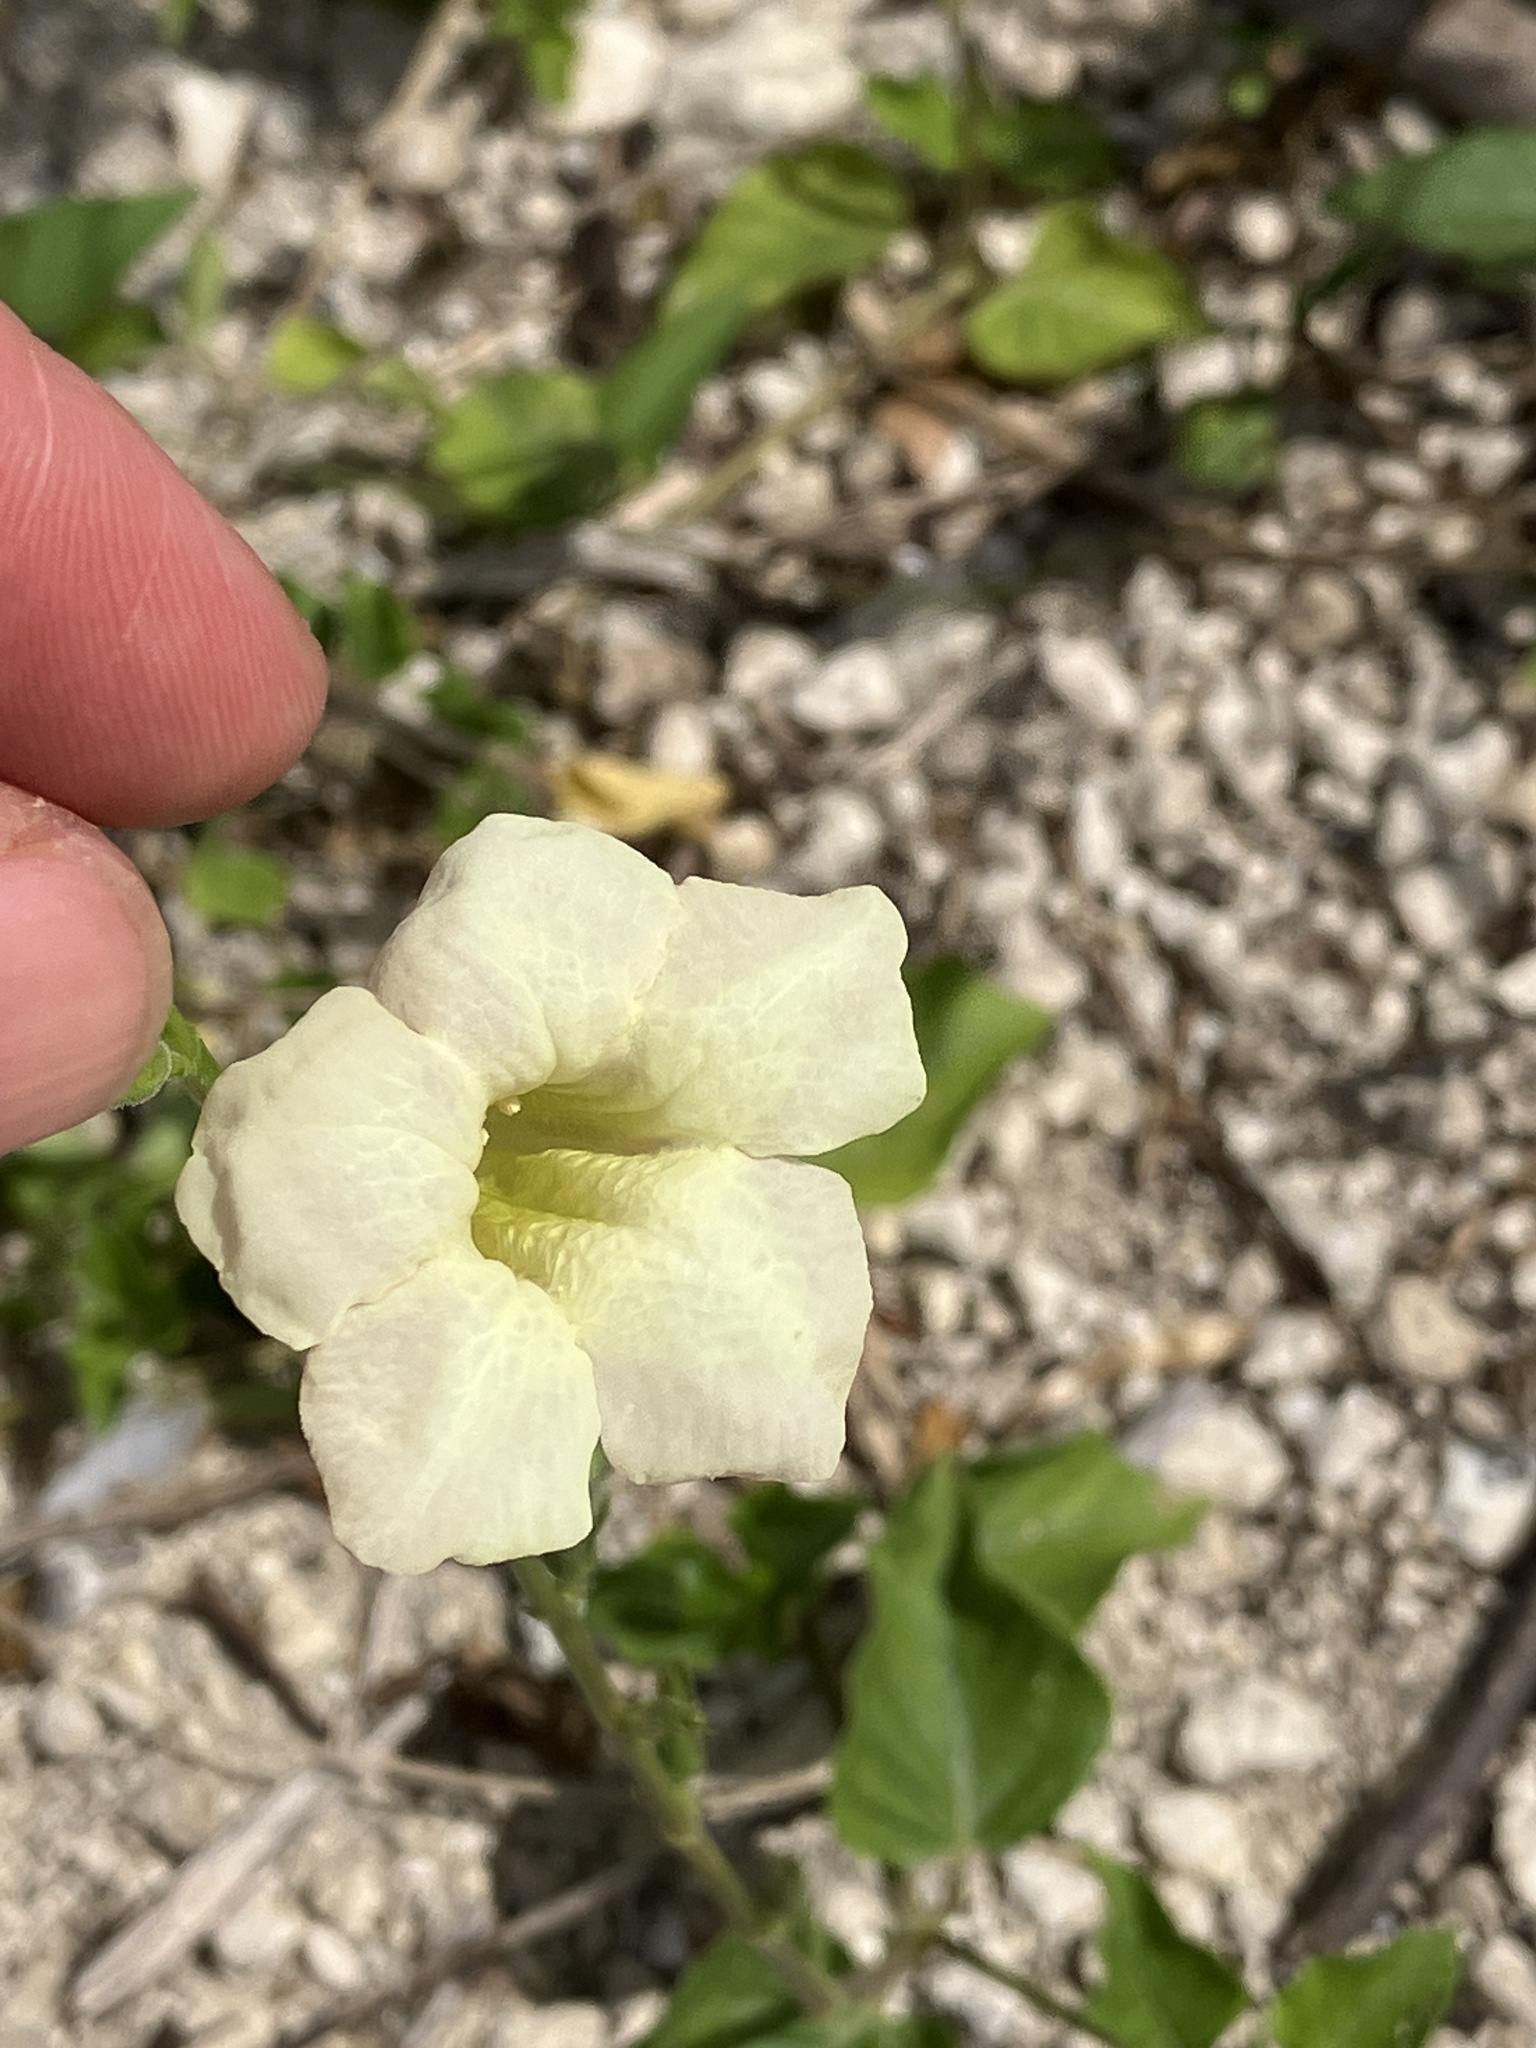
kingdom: Plantae
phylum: Tracheophyta
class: Magnoliopsida
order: Lamiales
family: Acanthaceae
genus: Asystasia
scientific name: Asystasia gangetica
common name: Chinese violet
